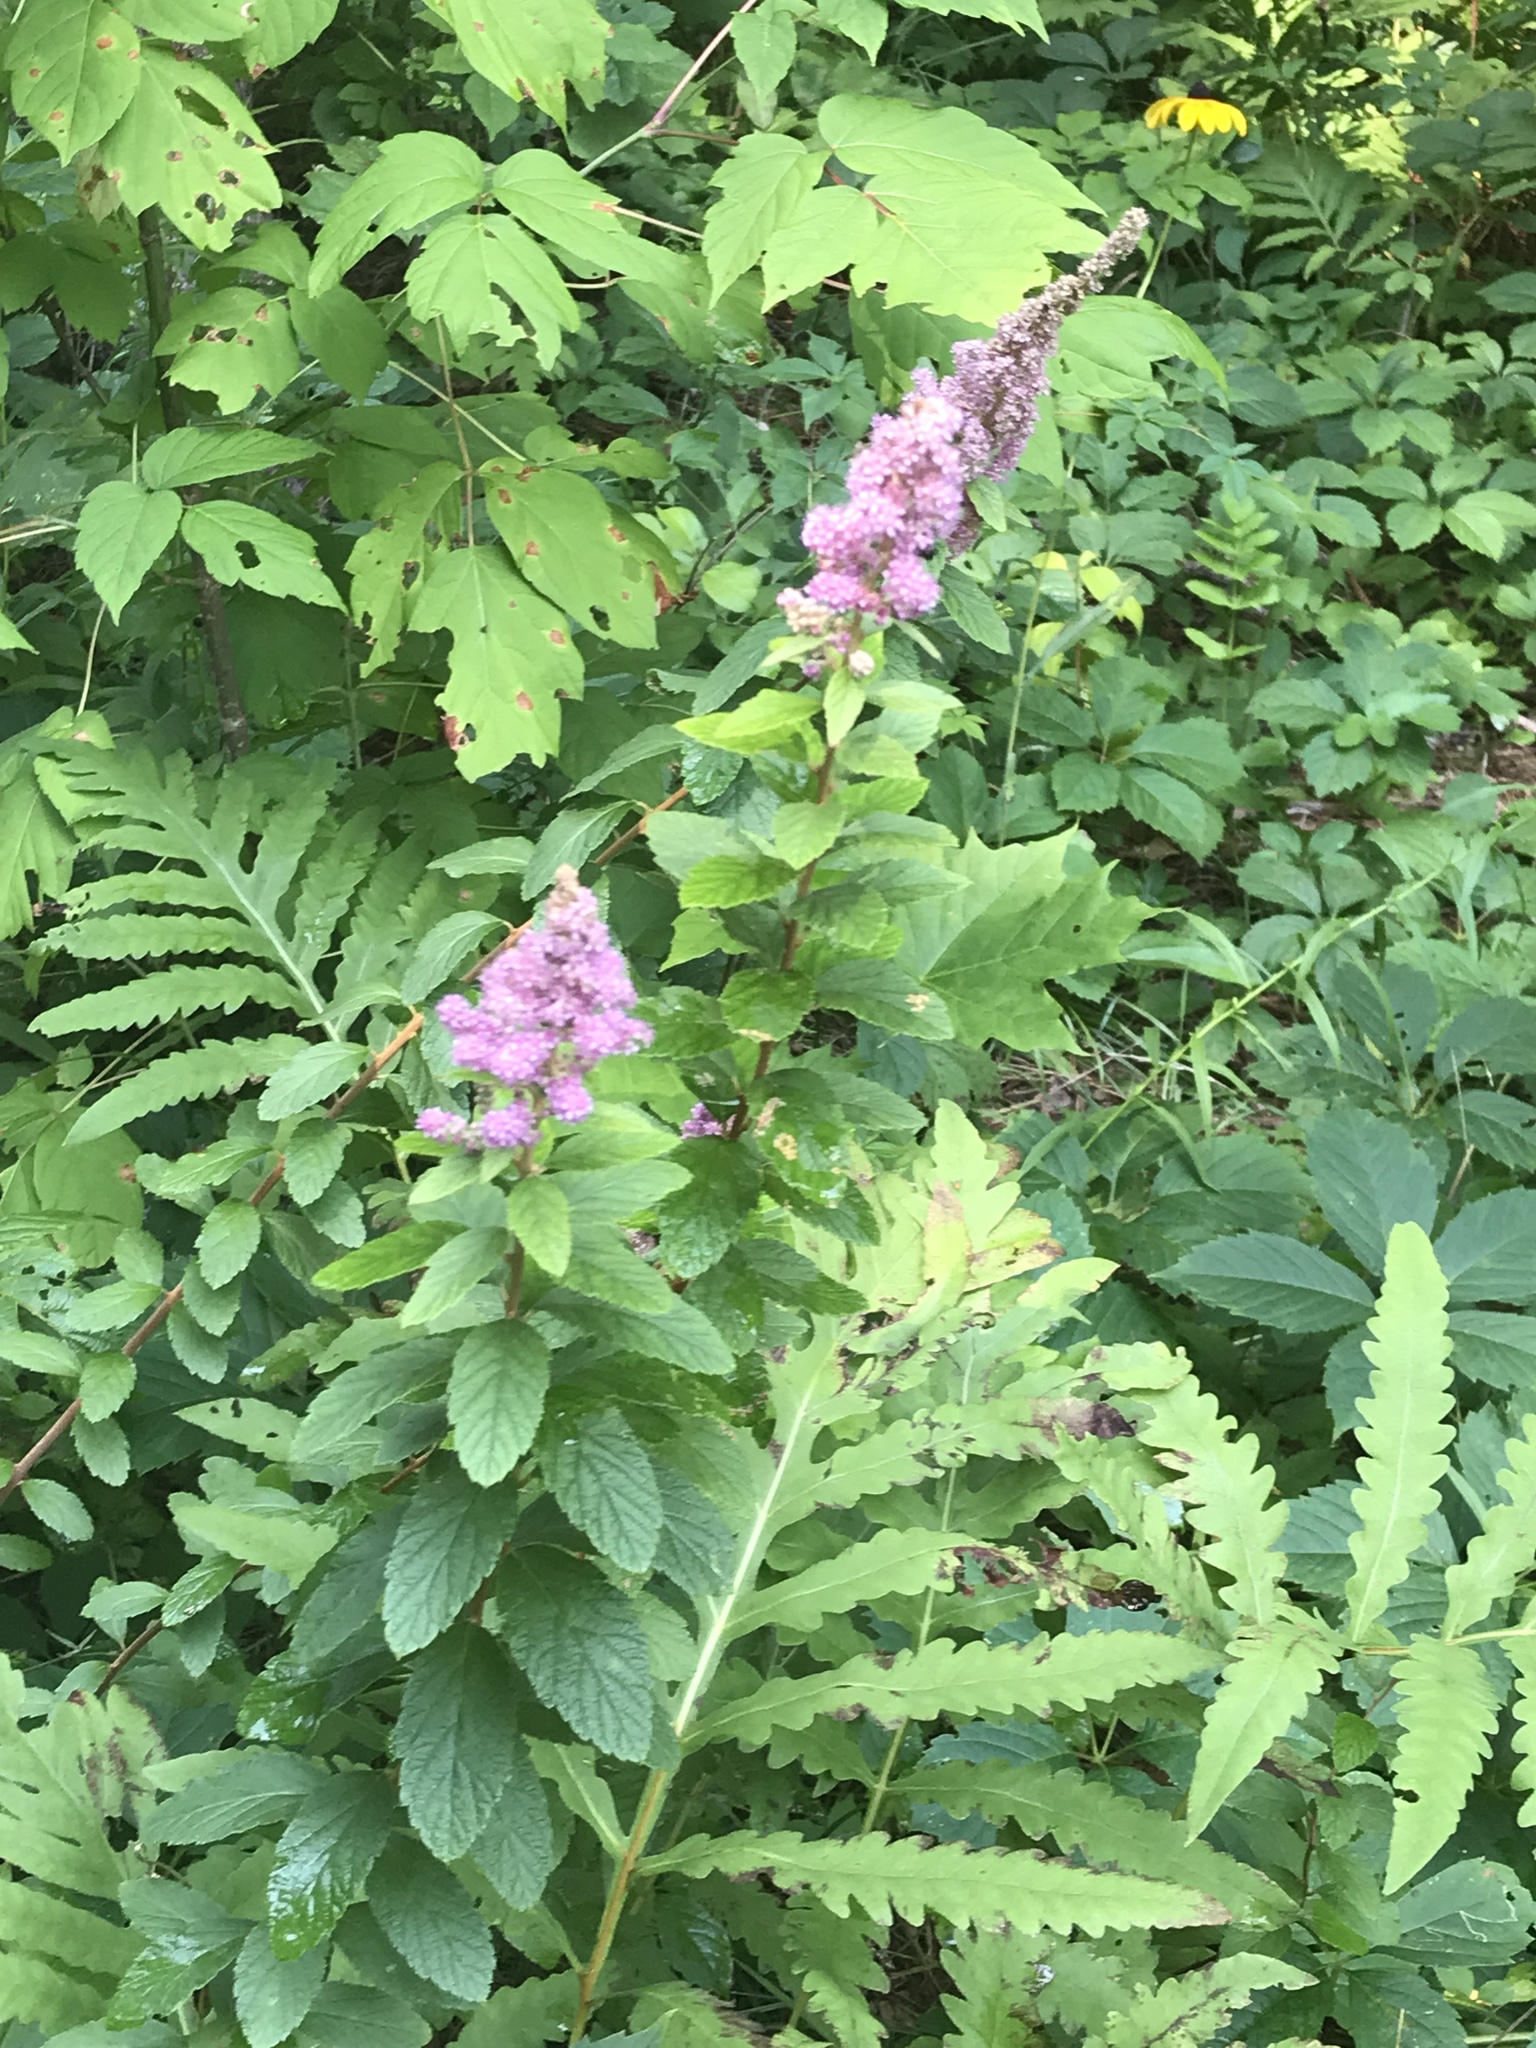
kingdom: Plantae
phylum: Tracheophyta
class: Magnoliopsida
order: Rosales
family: Rosaceae
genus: Spiraea
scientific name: Spiraea tomentosa
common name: Hardhack
